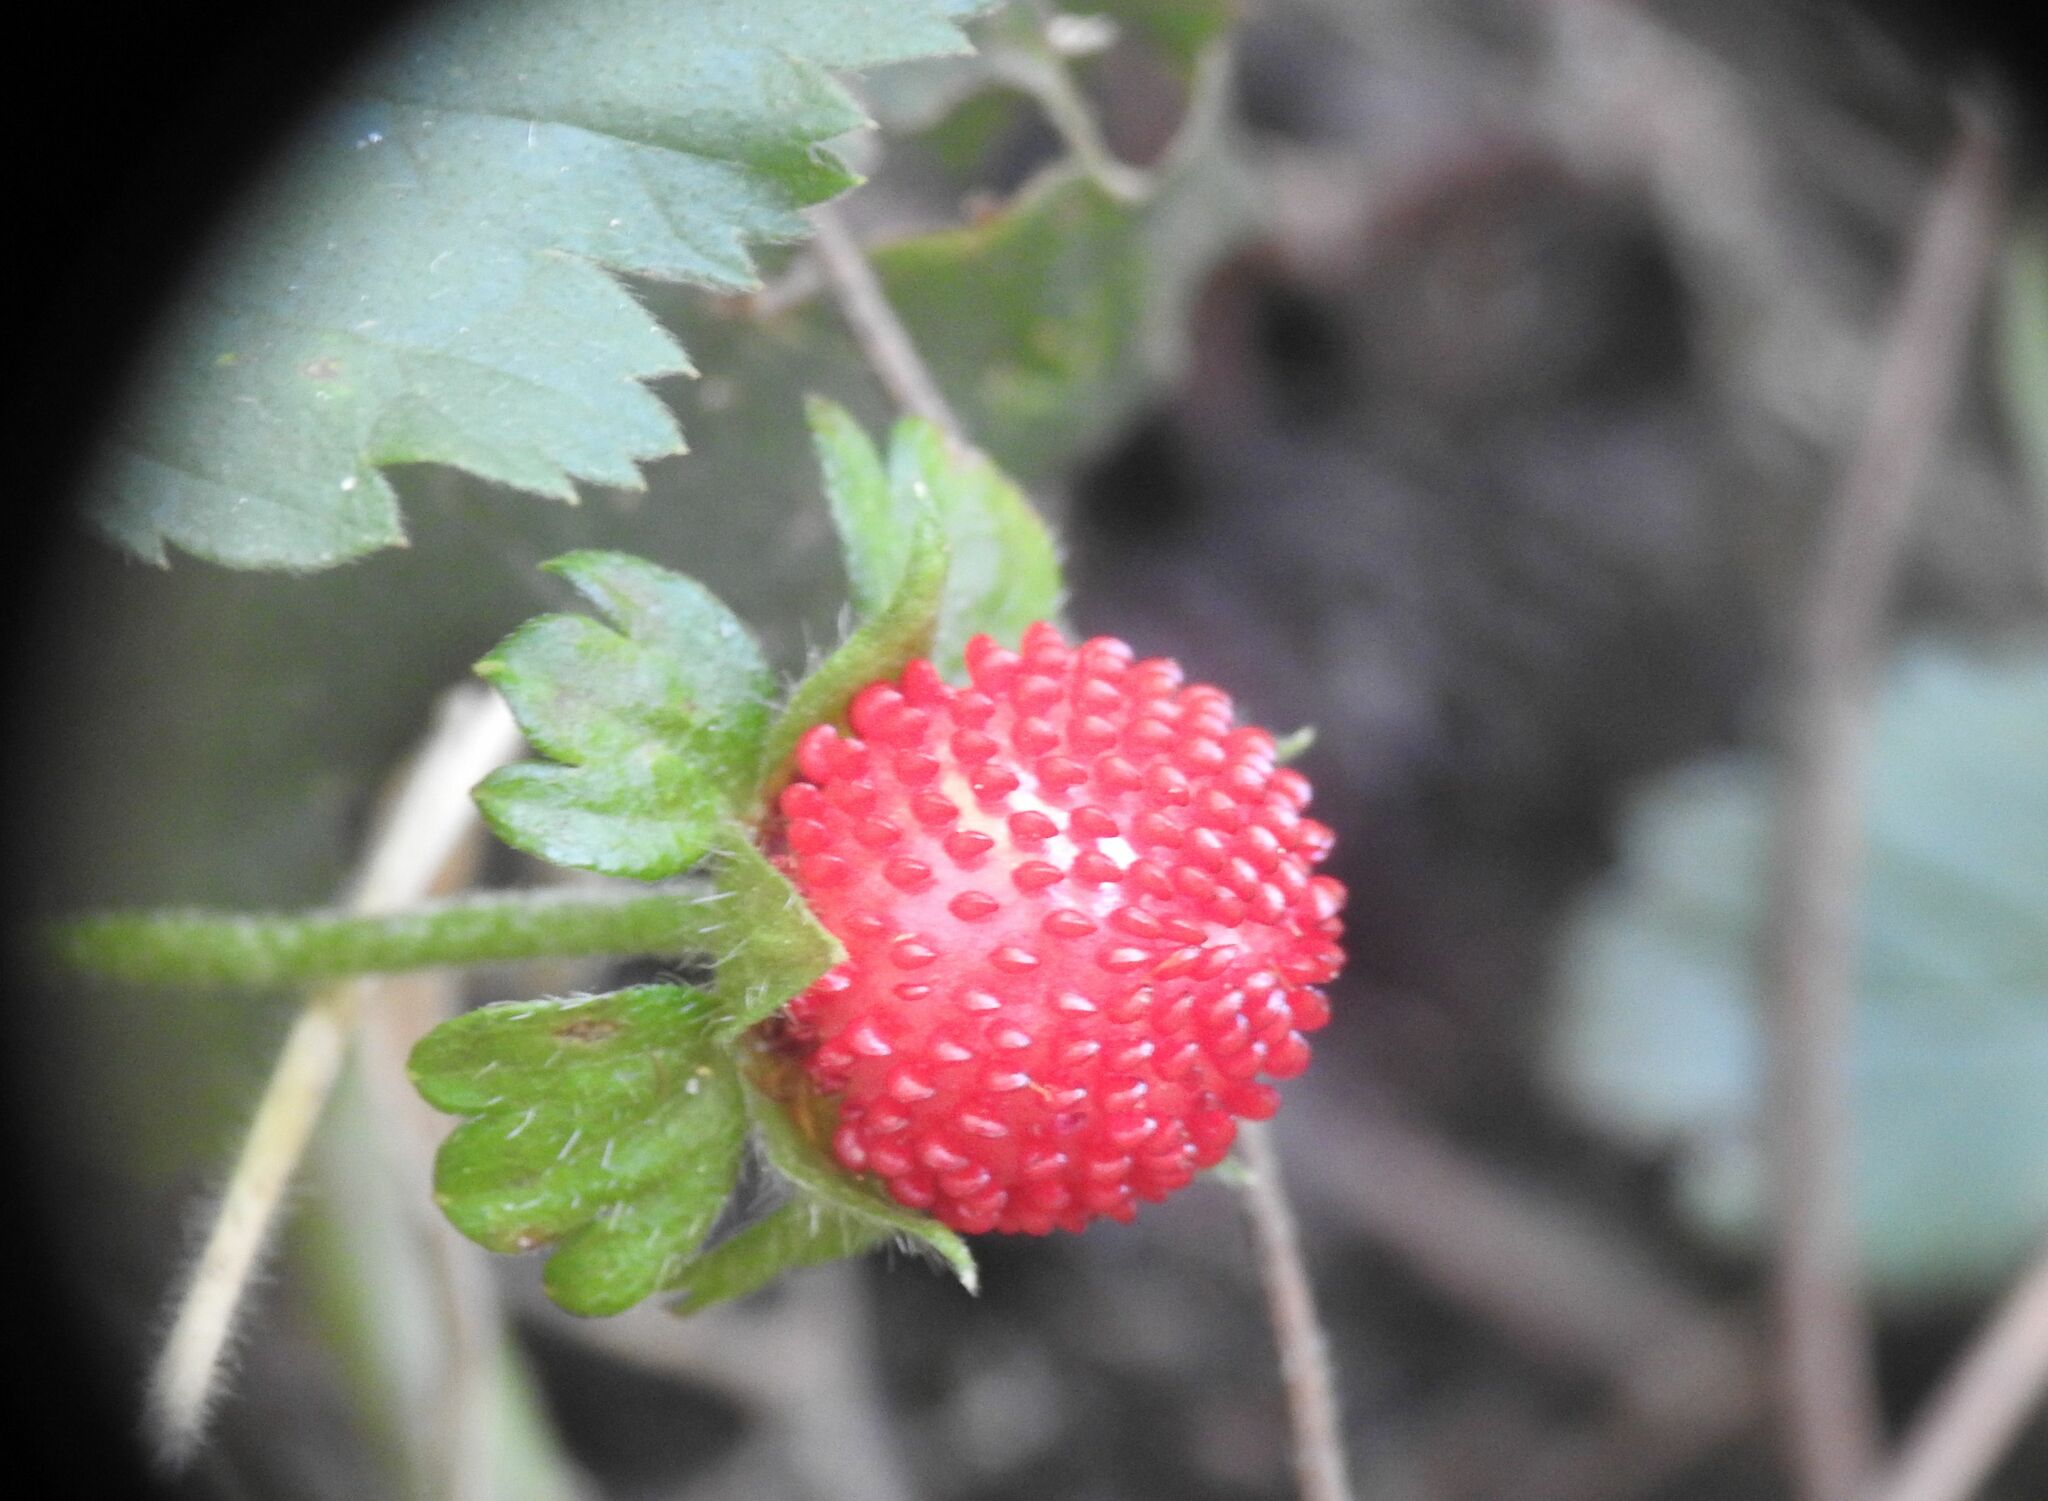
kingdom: Plantae
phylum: Tracheophyta
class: Magnoliopsida
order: Rosales
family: Rosaceae
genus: Potentilla
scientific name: Potentilla indica
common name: Yellow-flowered strawberry
